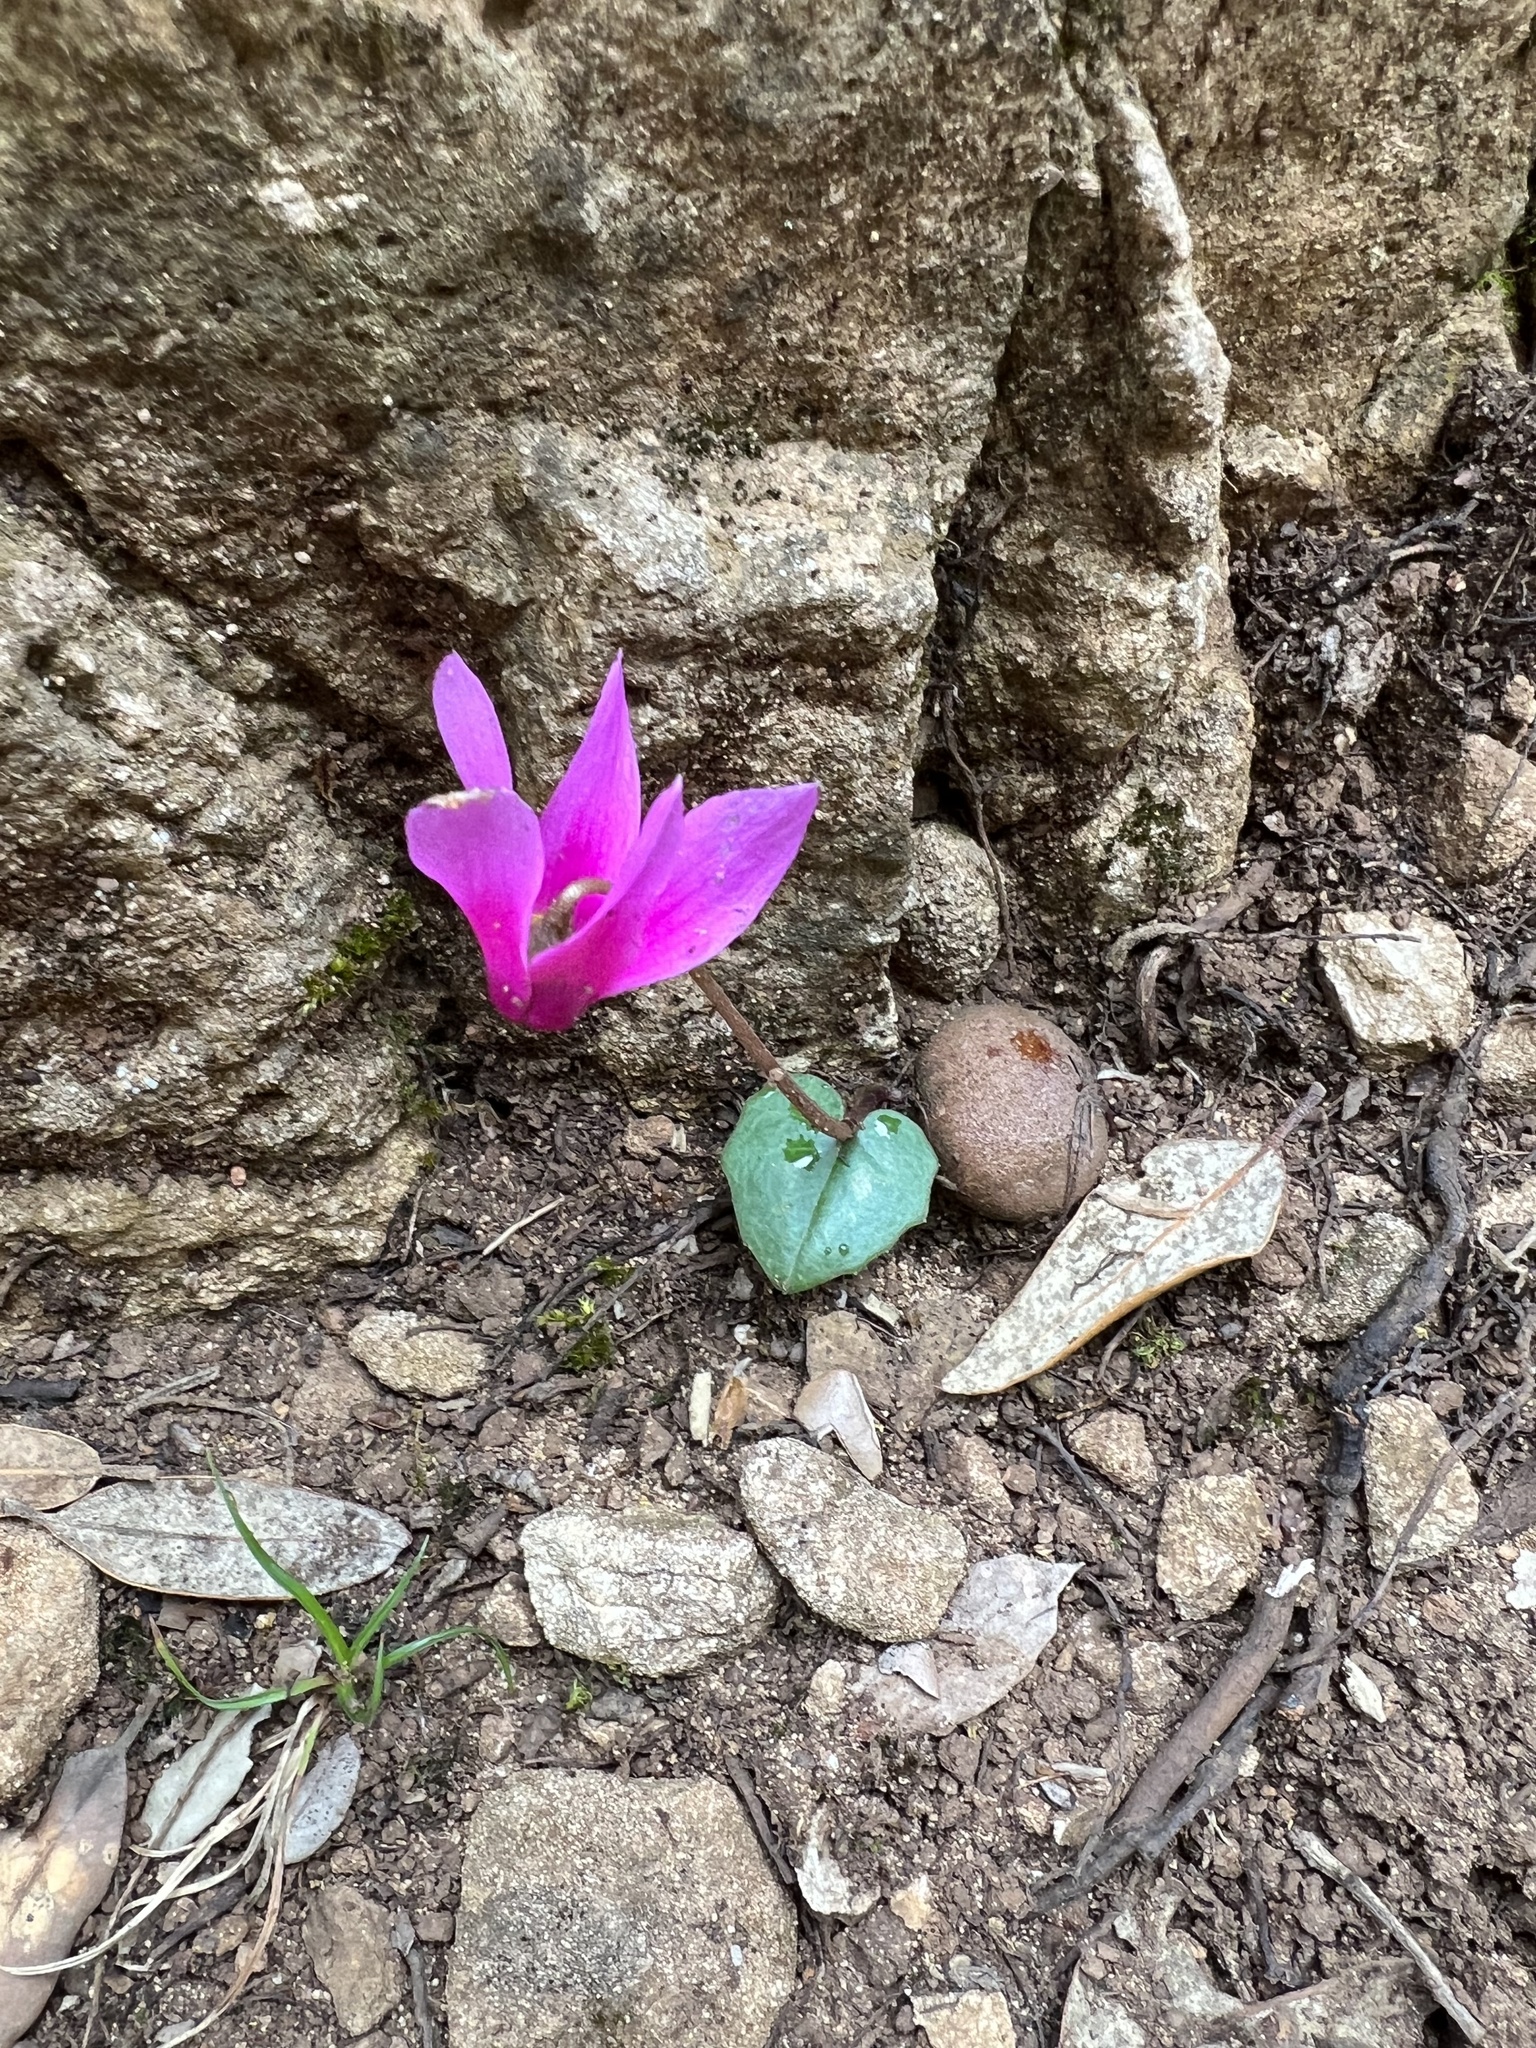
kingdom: Plantae
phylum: Tracheophyta
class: Magnoliopsida
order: Ericales
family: Primulaceae
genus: Cyclamen
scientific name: Cyclamen repandum
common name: Spring sowbread
